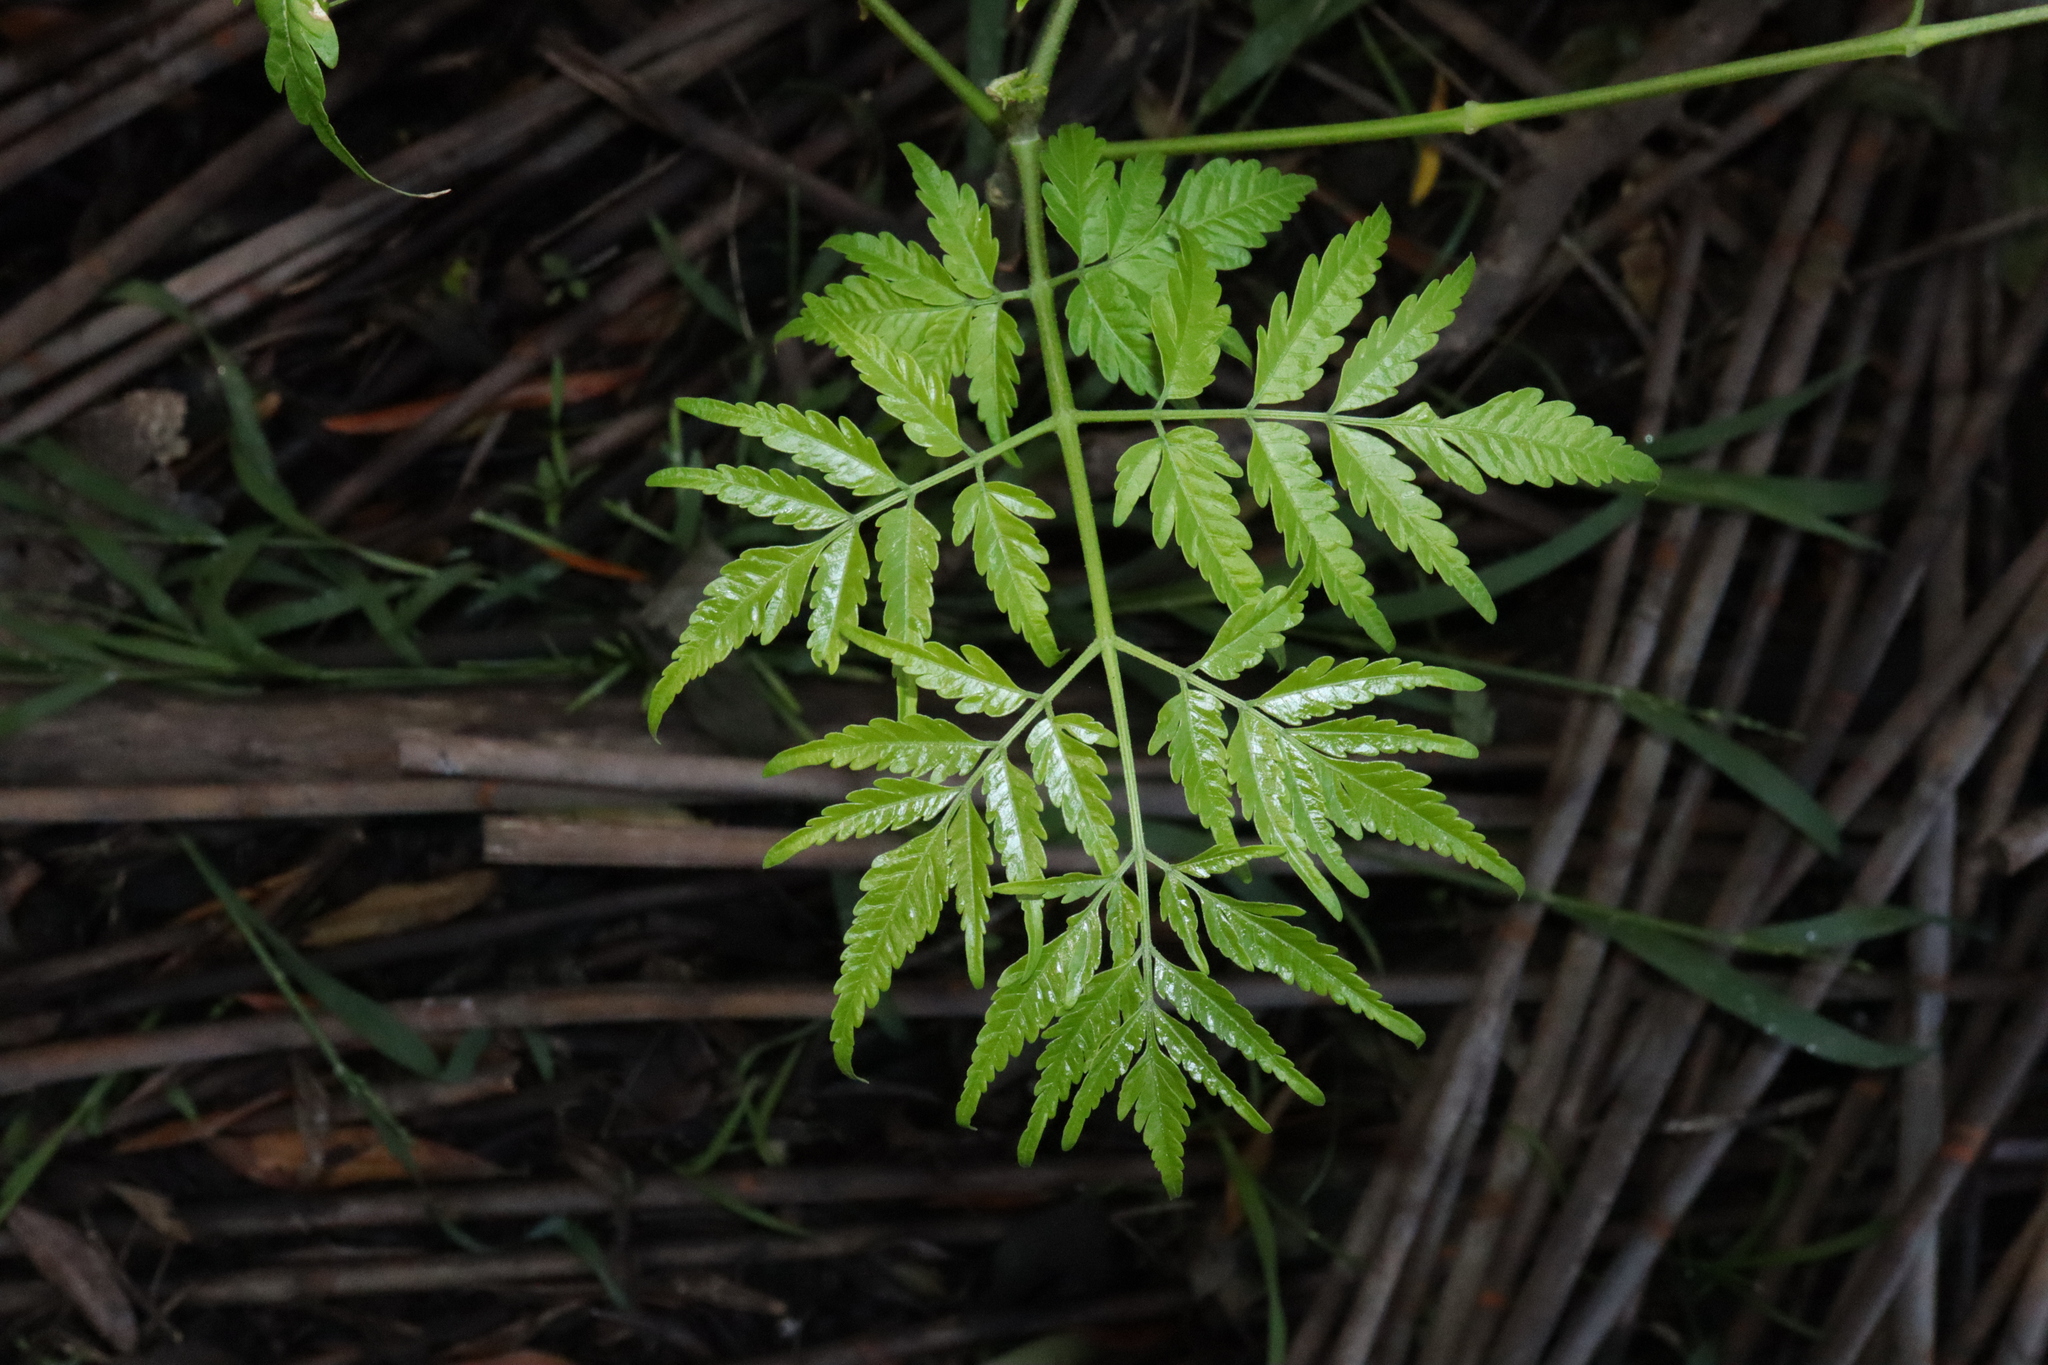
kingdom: Plantae
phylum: Tracheophyta
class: Magnoliopsida
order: Sapindales
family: Meliaceae
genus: Melia
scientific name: Melia azedarach
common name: Chinaberrytree
